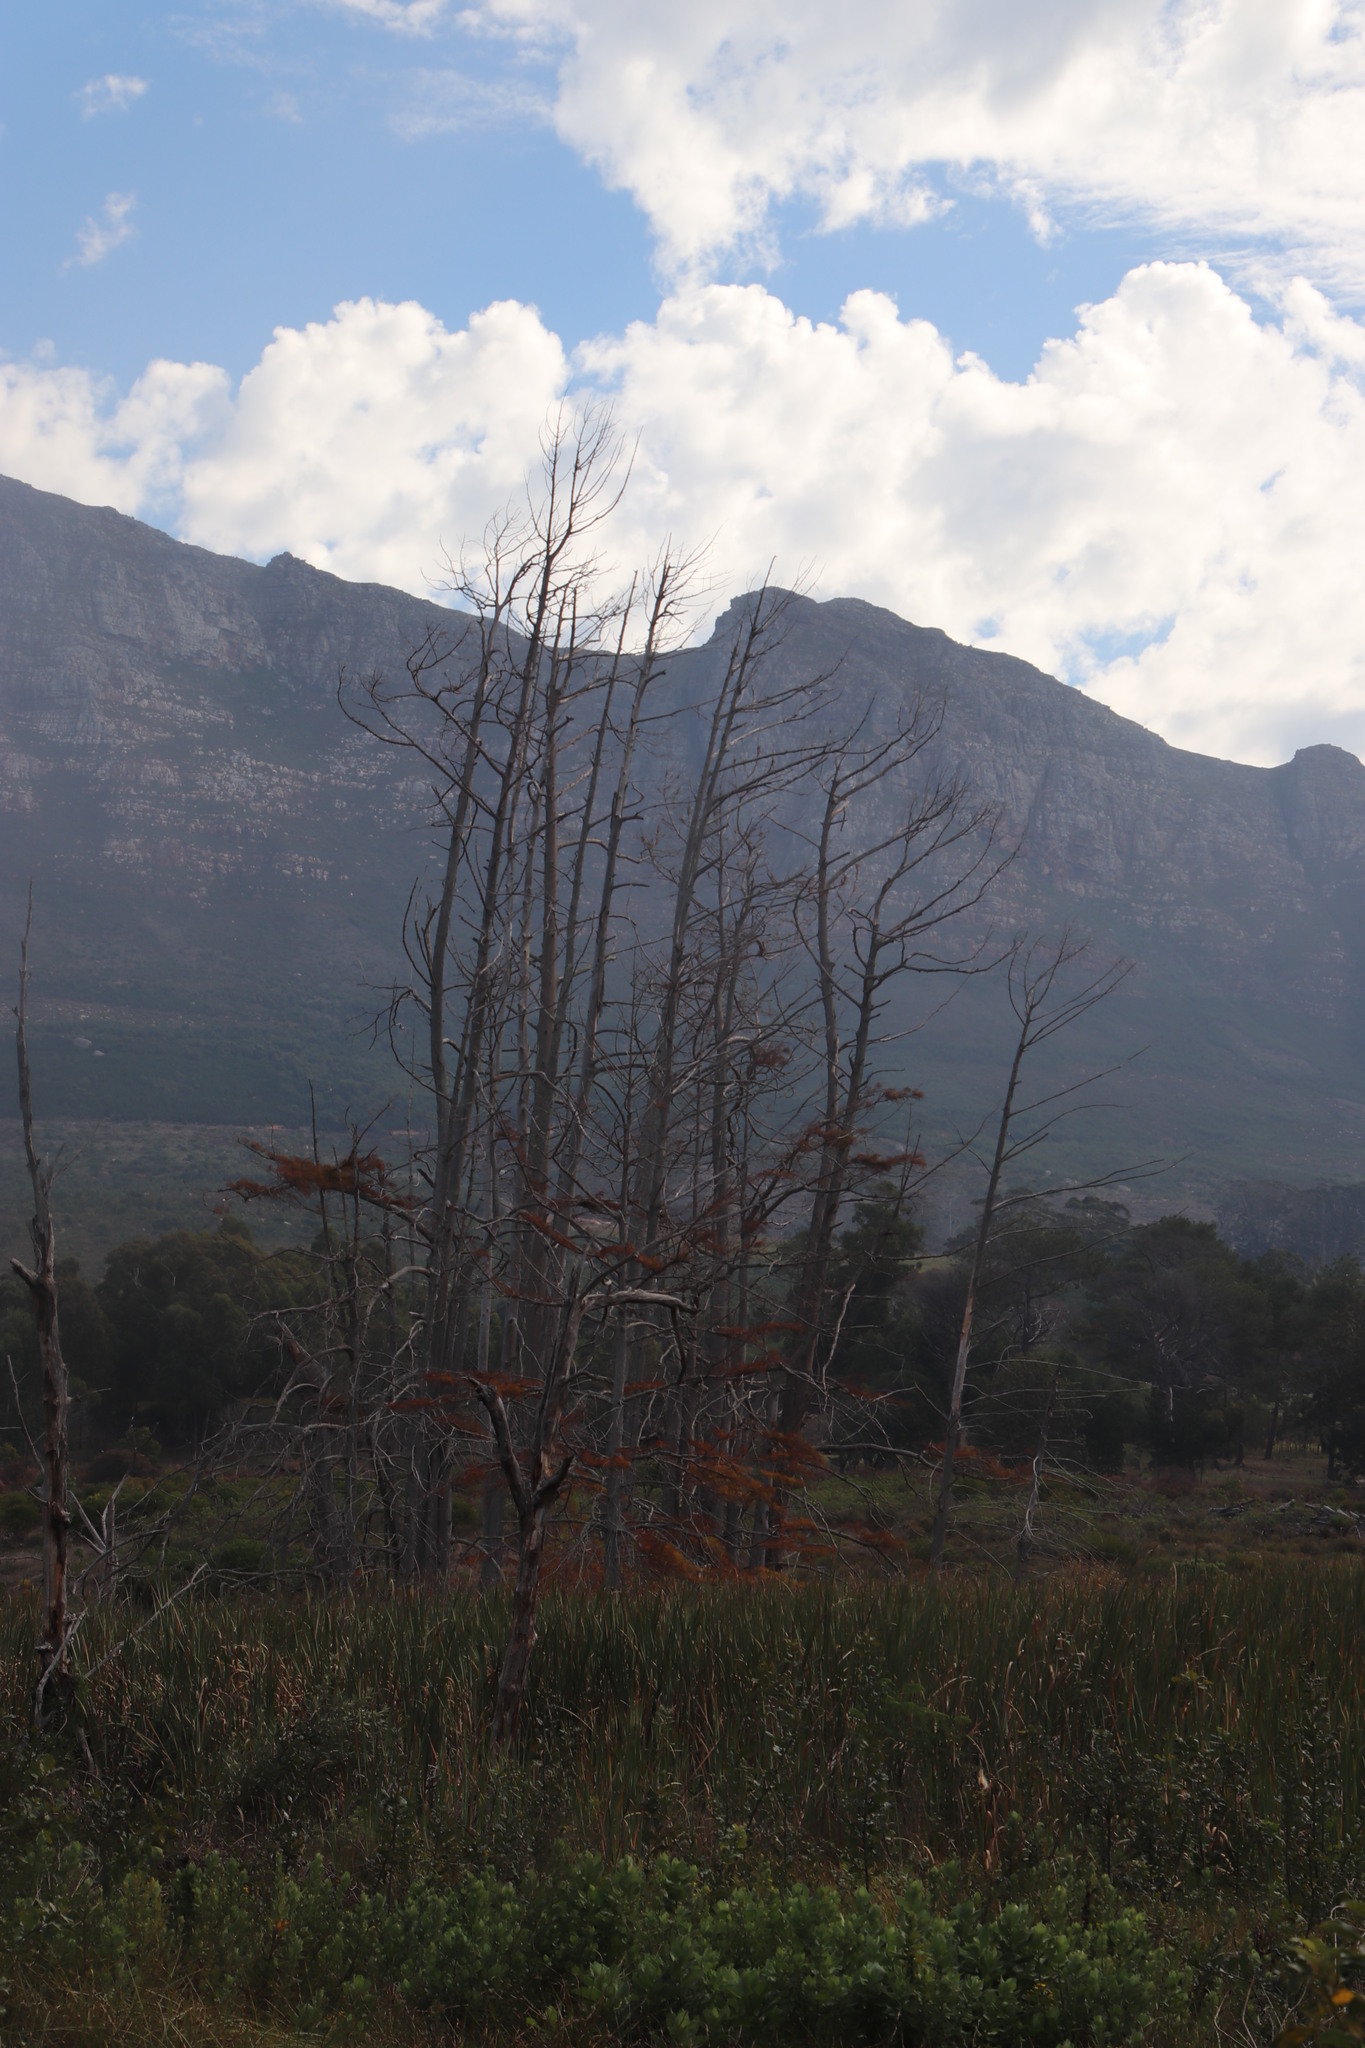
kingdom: Plantae
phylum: Tracheophyta
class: Pinopsida
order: Pinales
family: Cupressaceae
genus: Taxodium
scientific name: Taxodium distichum
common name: Bald cypress
